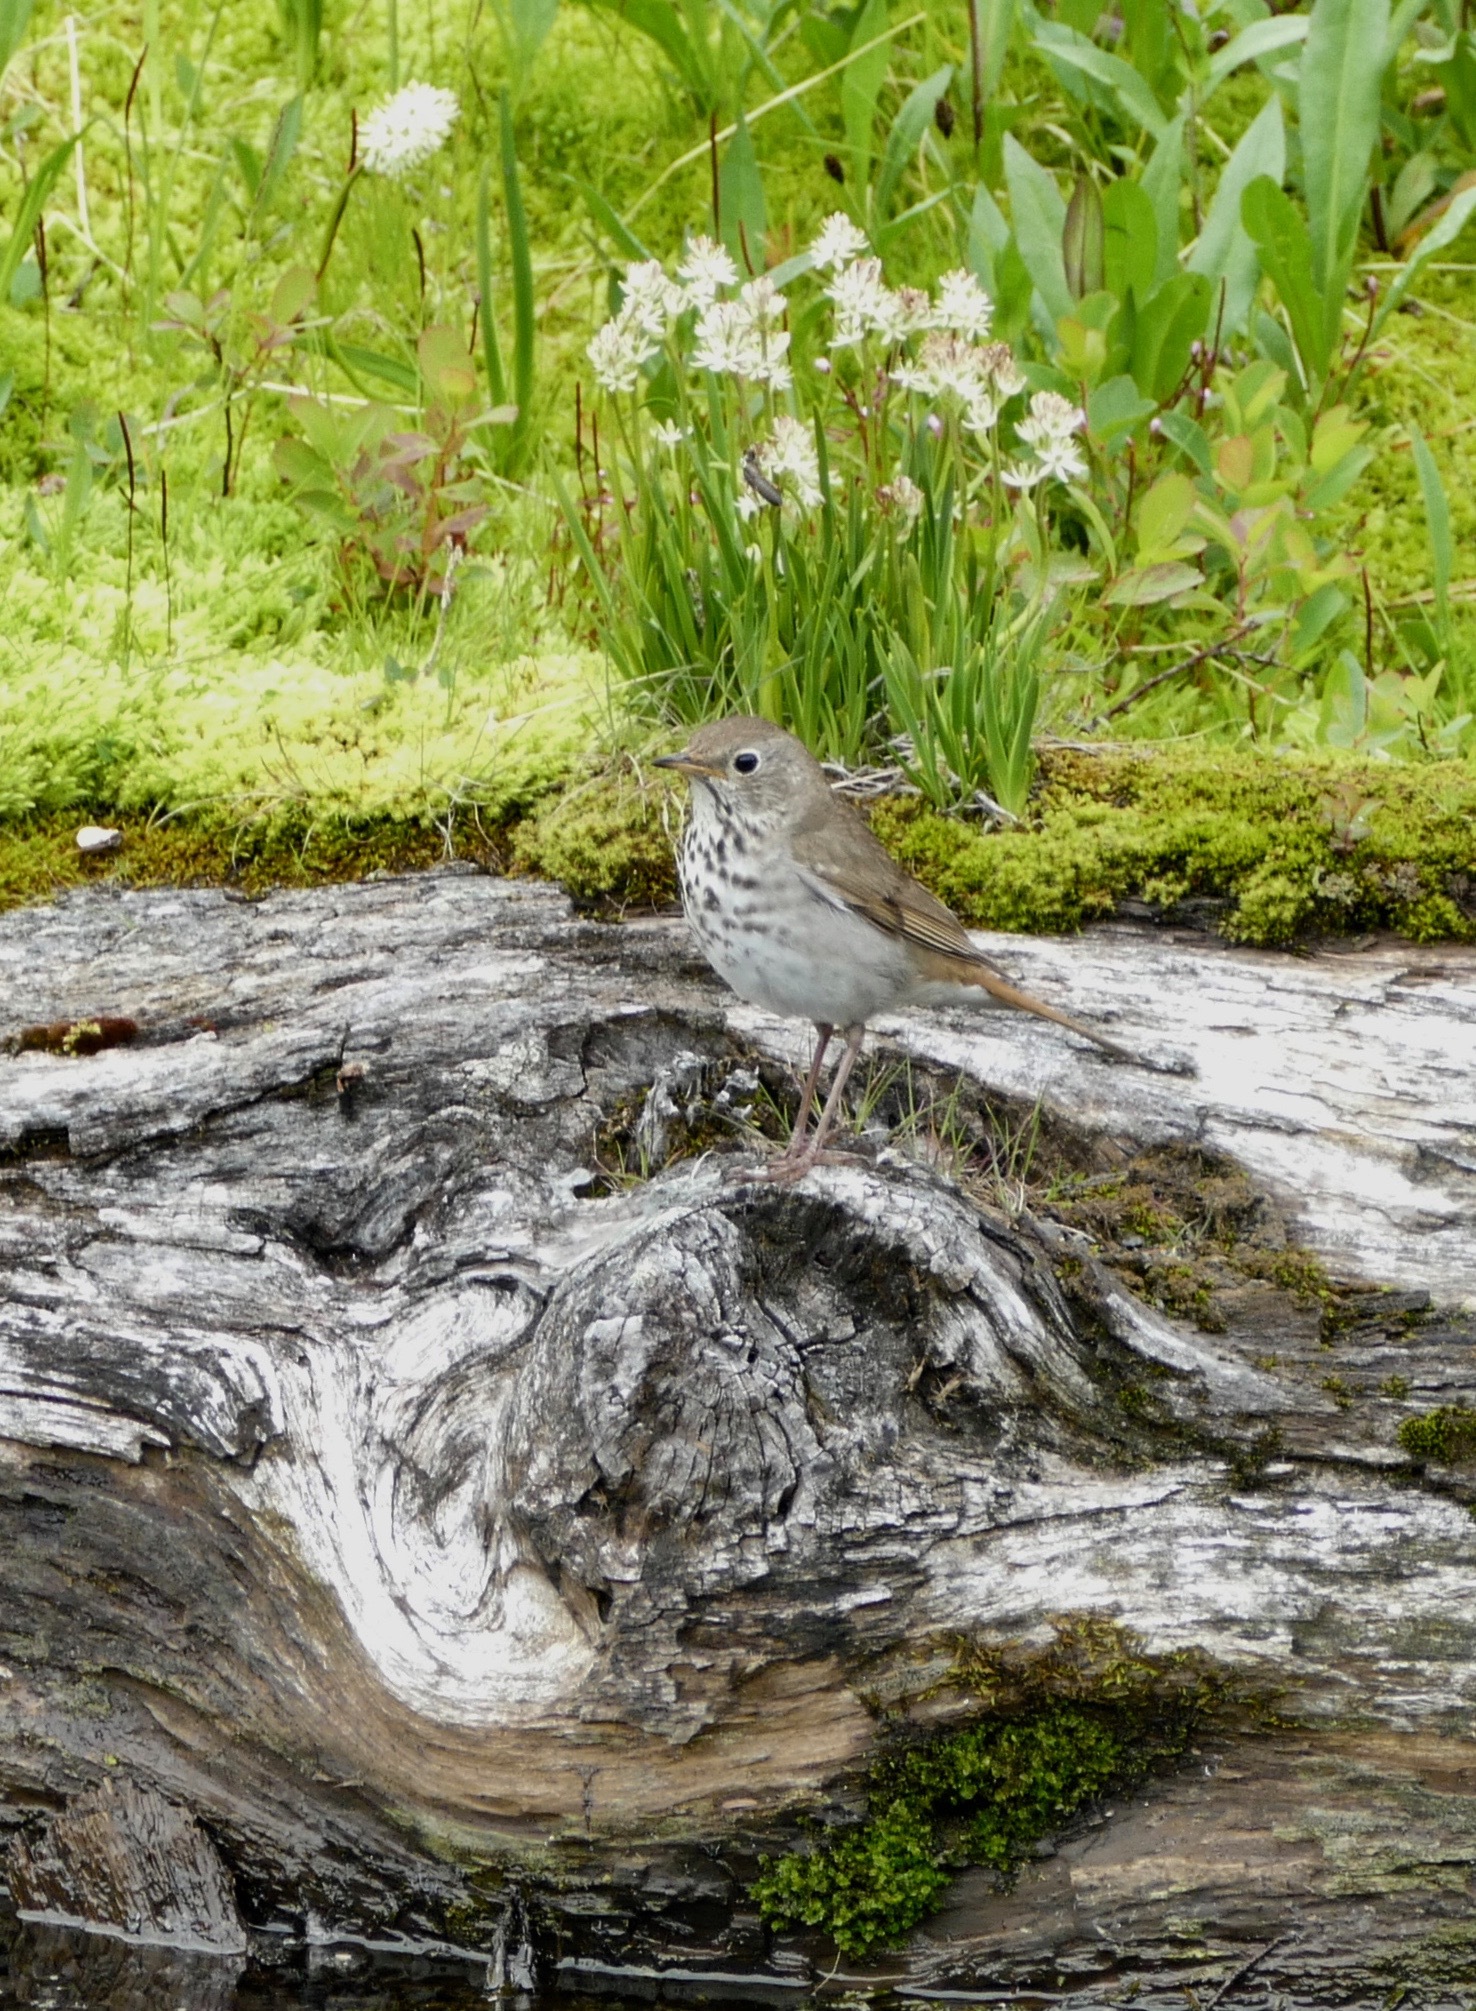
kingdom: Animalia
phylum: Chordata
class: Aves
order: Passeriformes
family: Turdidae
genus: Catharus
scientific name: Catharus guttatus
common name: Hermit thrush
